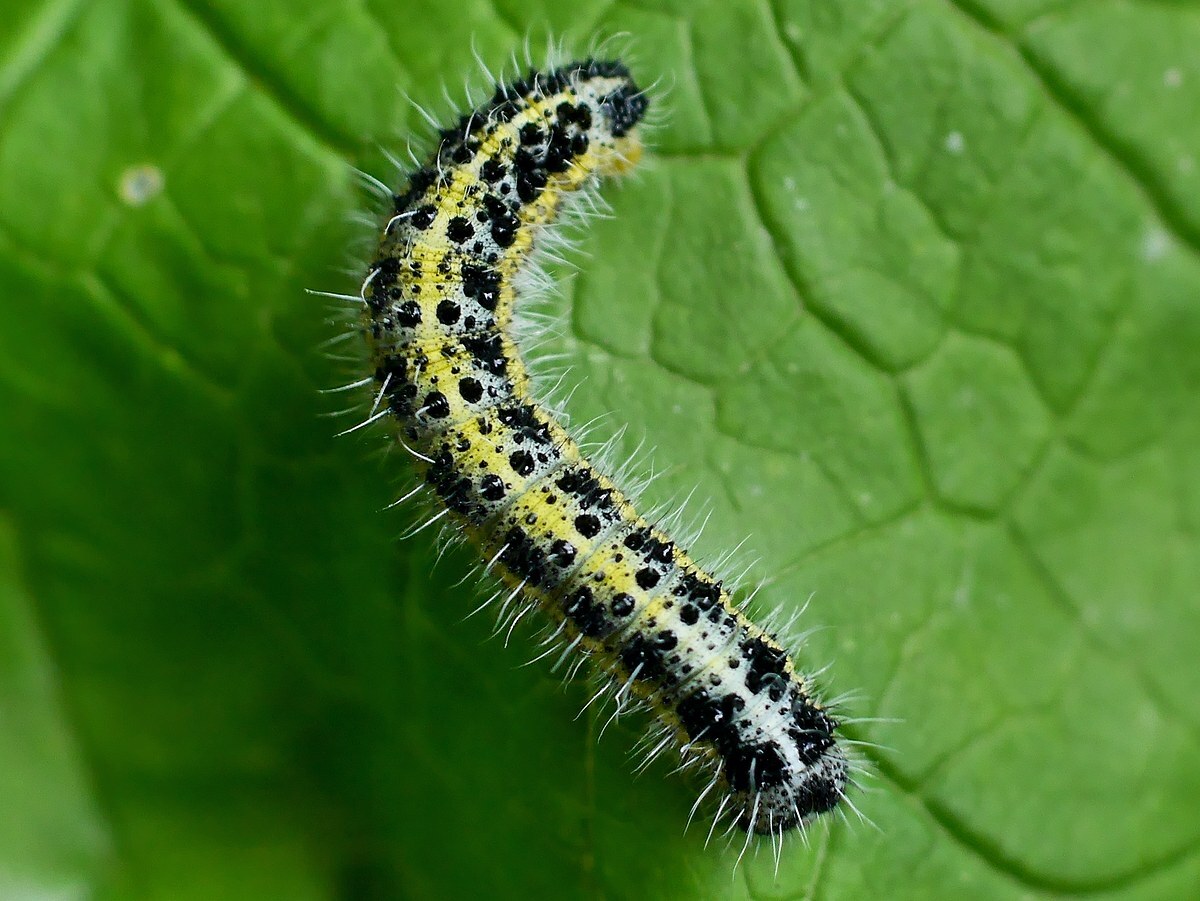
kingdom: Animalia
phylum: Arthropoda
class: Insecta
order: Lepidoptera
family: Pieridae
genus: Pieris
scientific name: Pieris brassicae
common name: Large white
